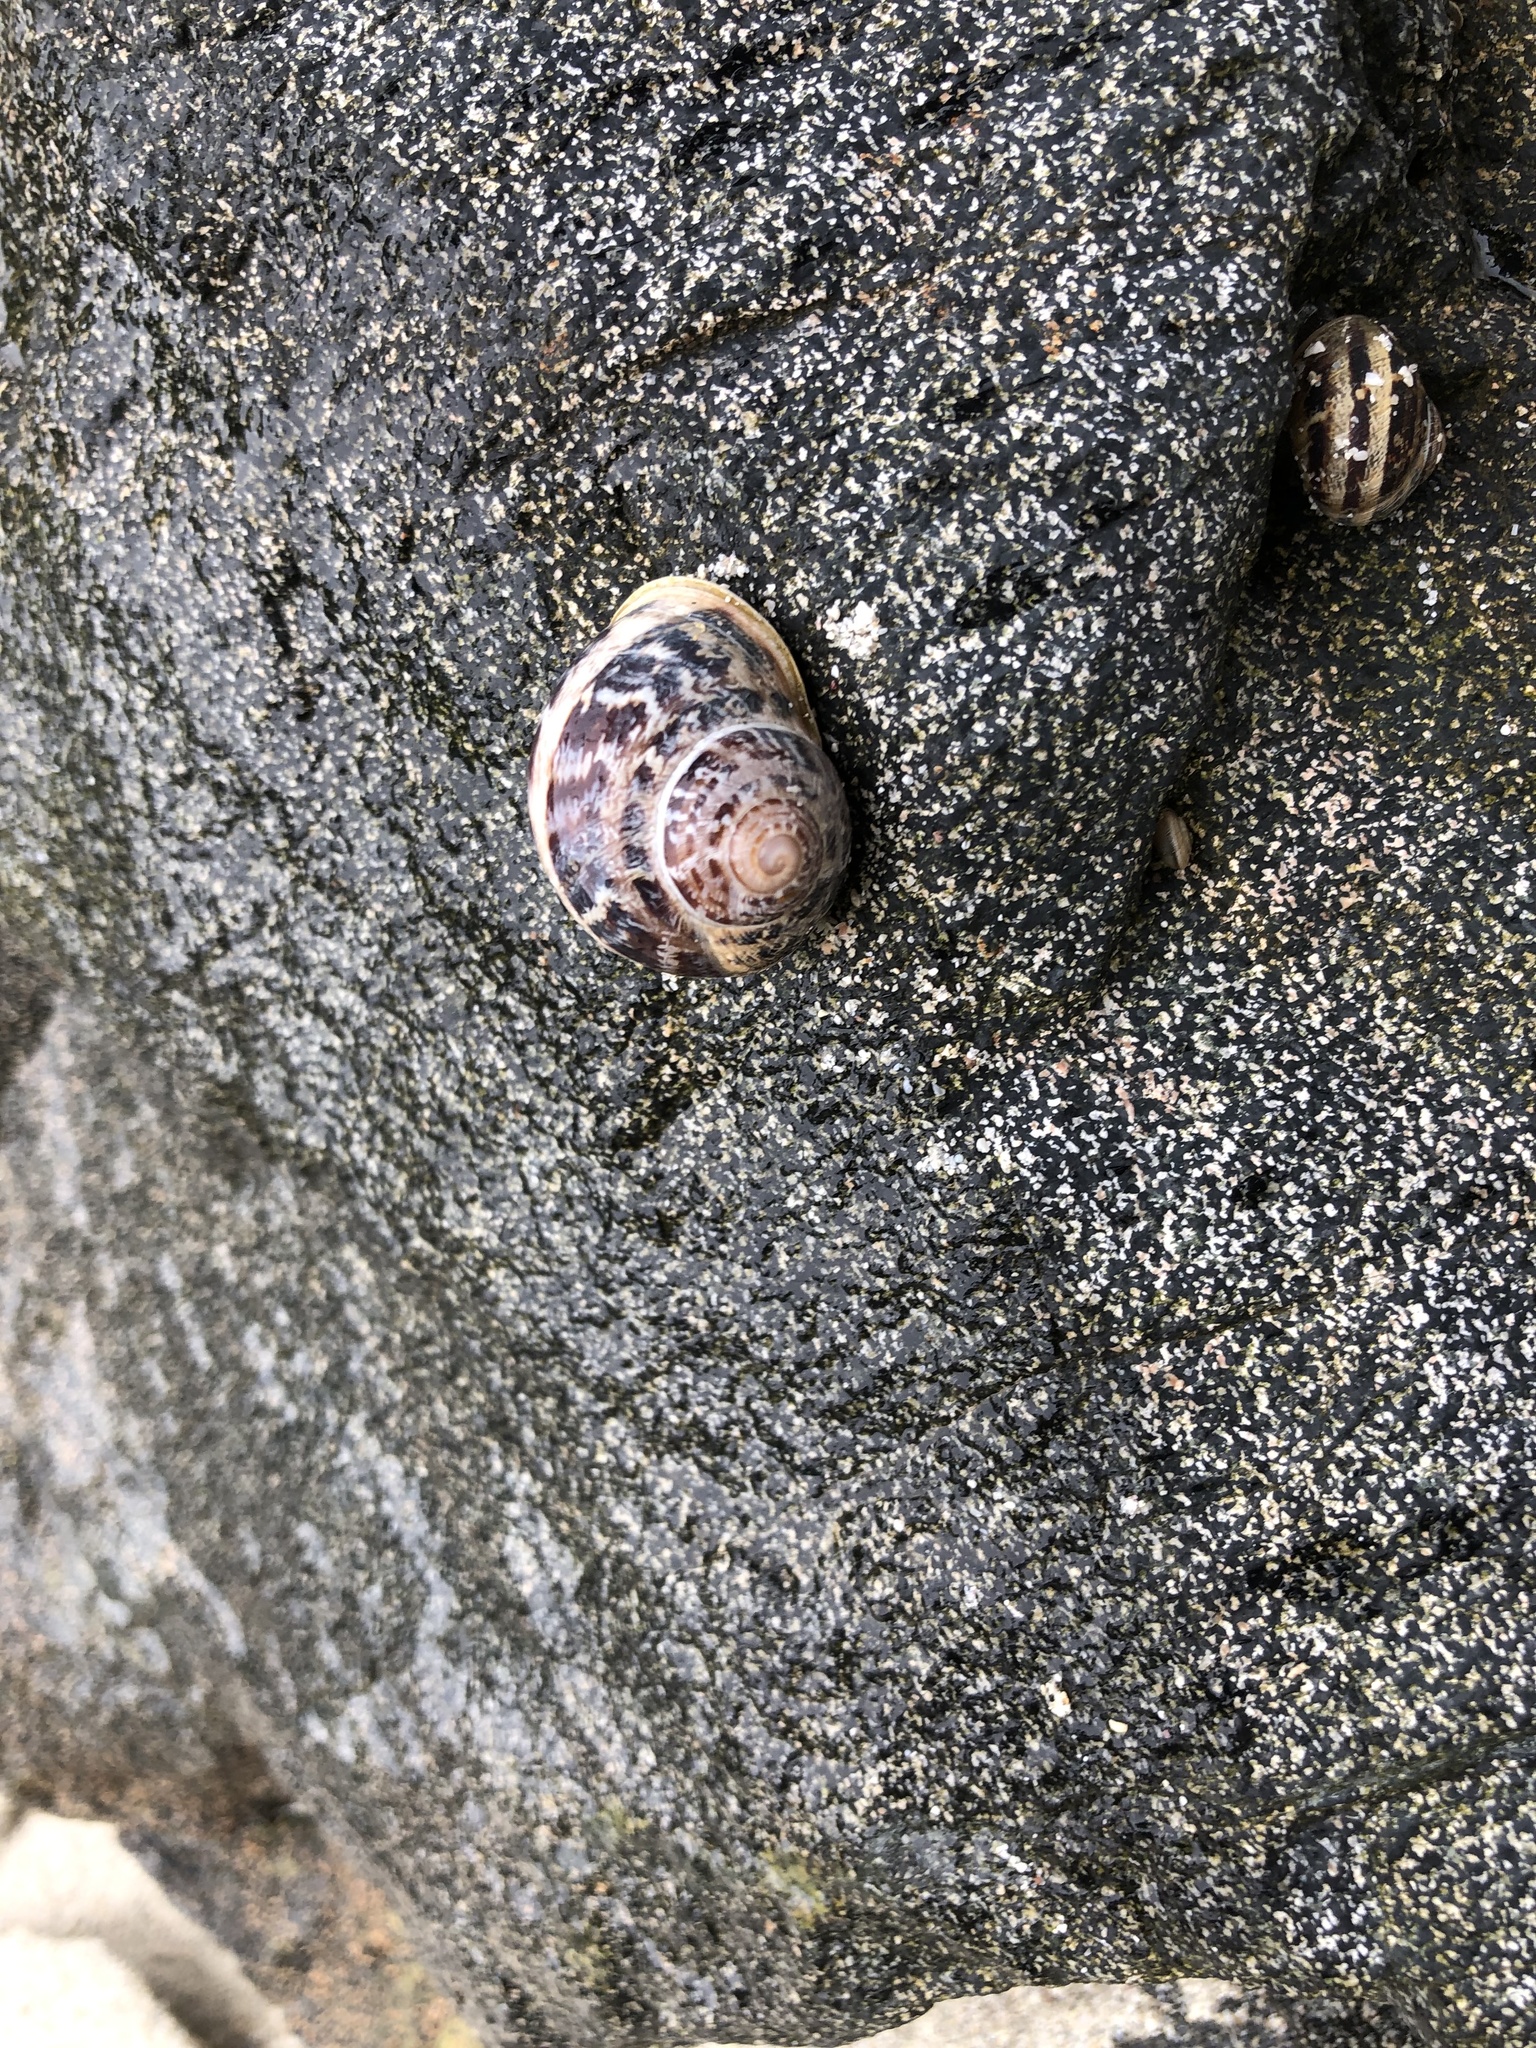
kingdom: Animalia
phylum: Mollusca
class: Gastropoda
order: Stylommatophora
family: Helicidae
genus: Cornu
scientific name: Cornu aspersum
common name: Brown garden snail
